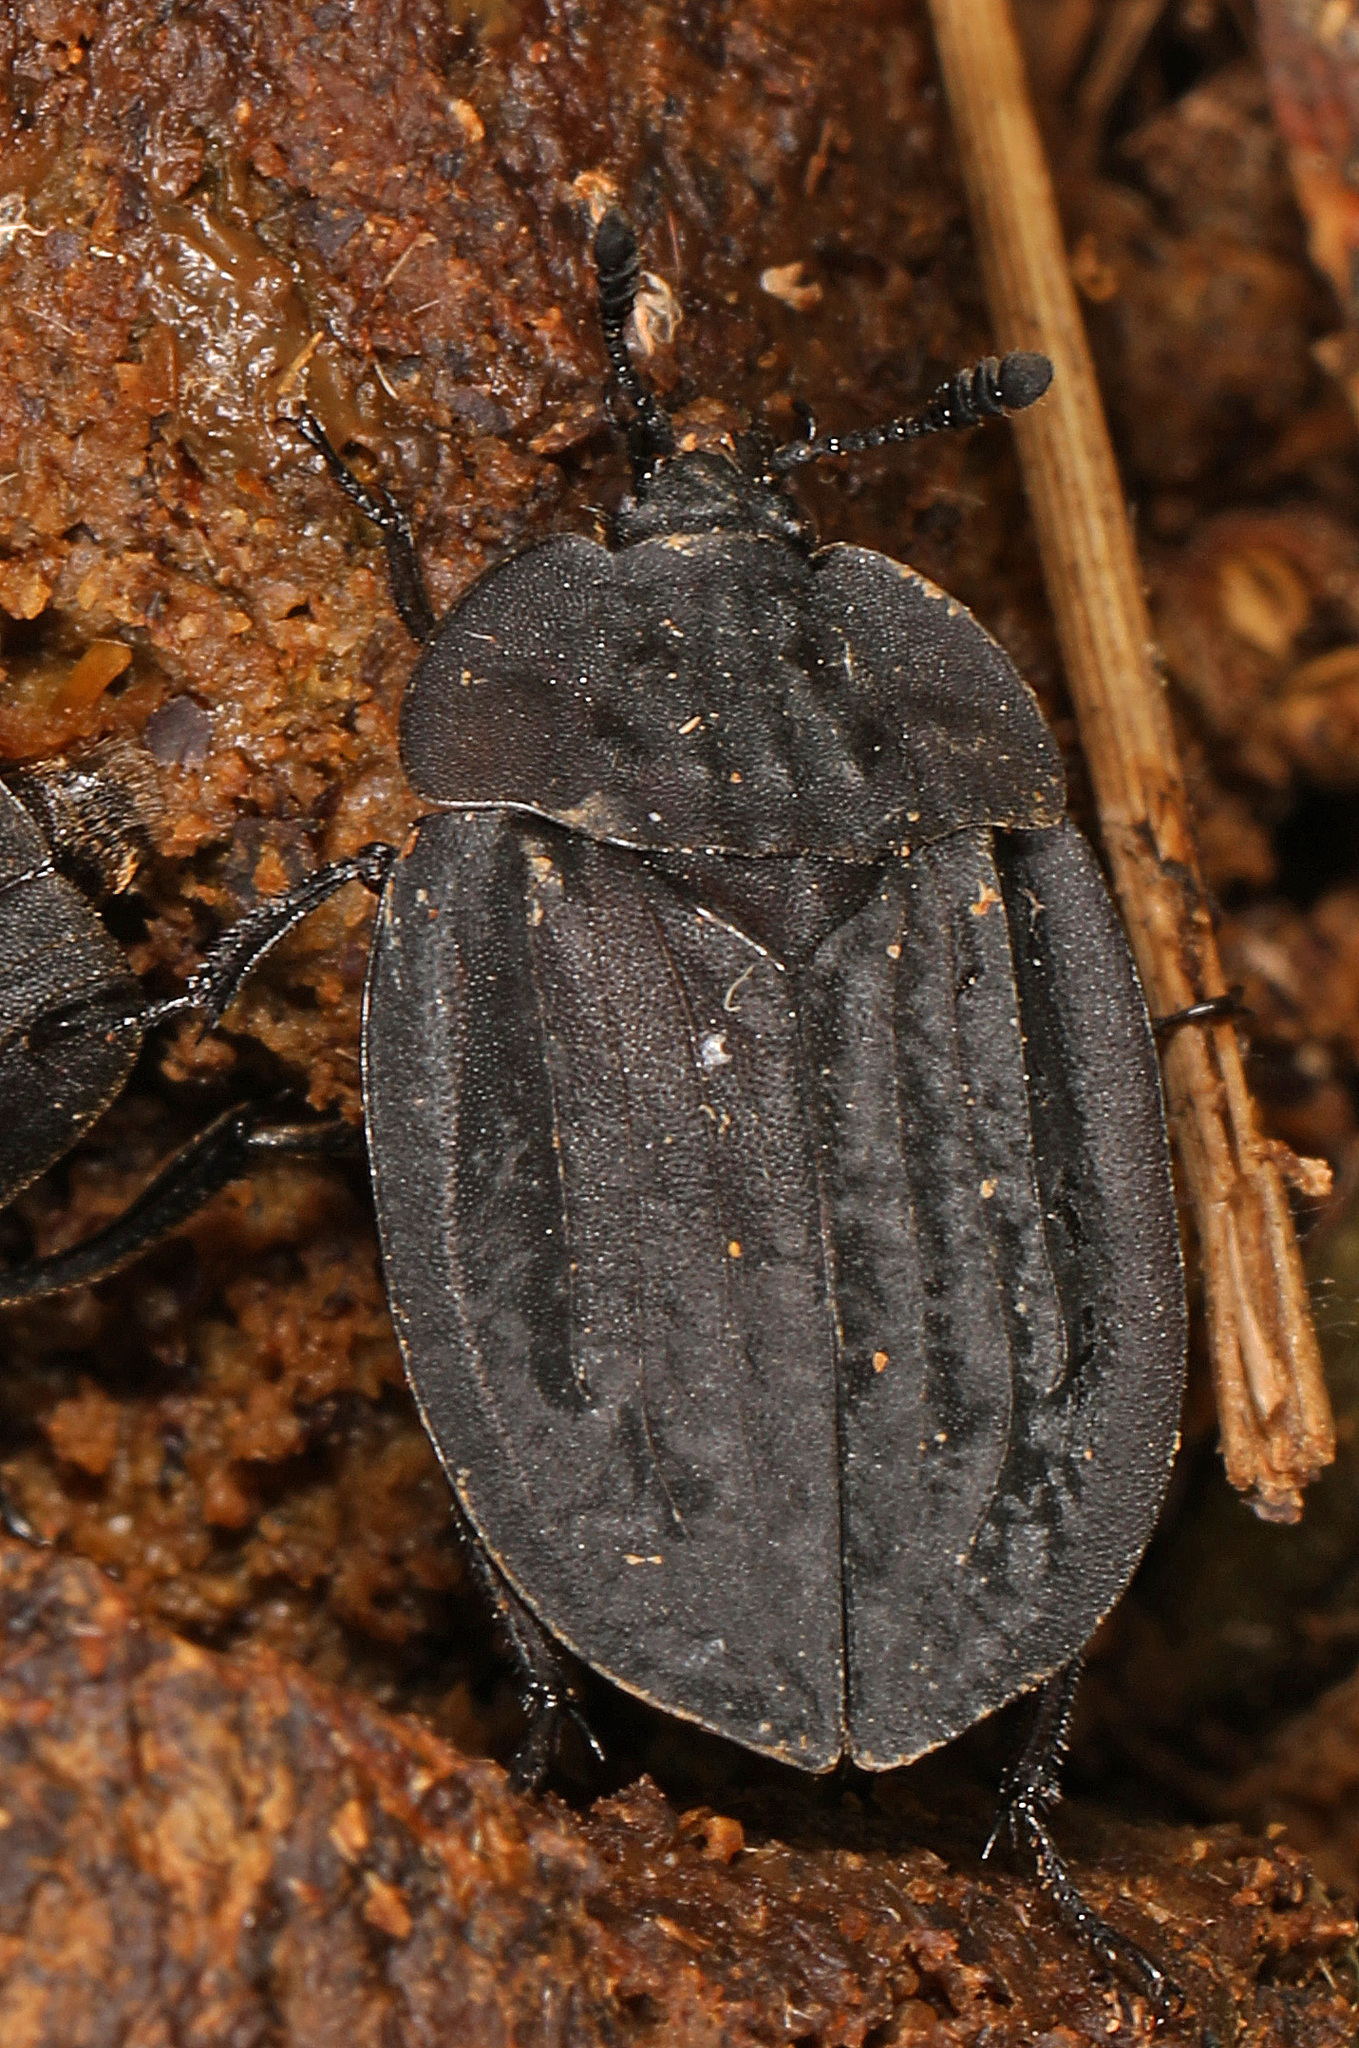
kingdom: Animalia
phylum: Arthropoda
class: Insecta
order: Coleoptera
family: Staphylinidae
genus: Oiceoptoma
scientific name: Oiceoptoma inaequale
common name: Ridged carrion beetle
